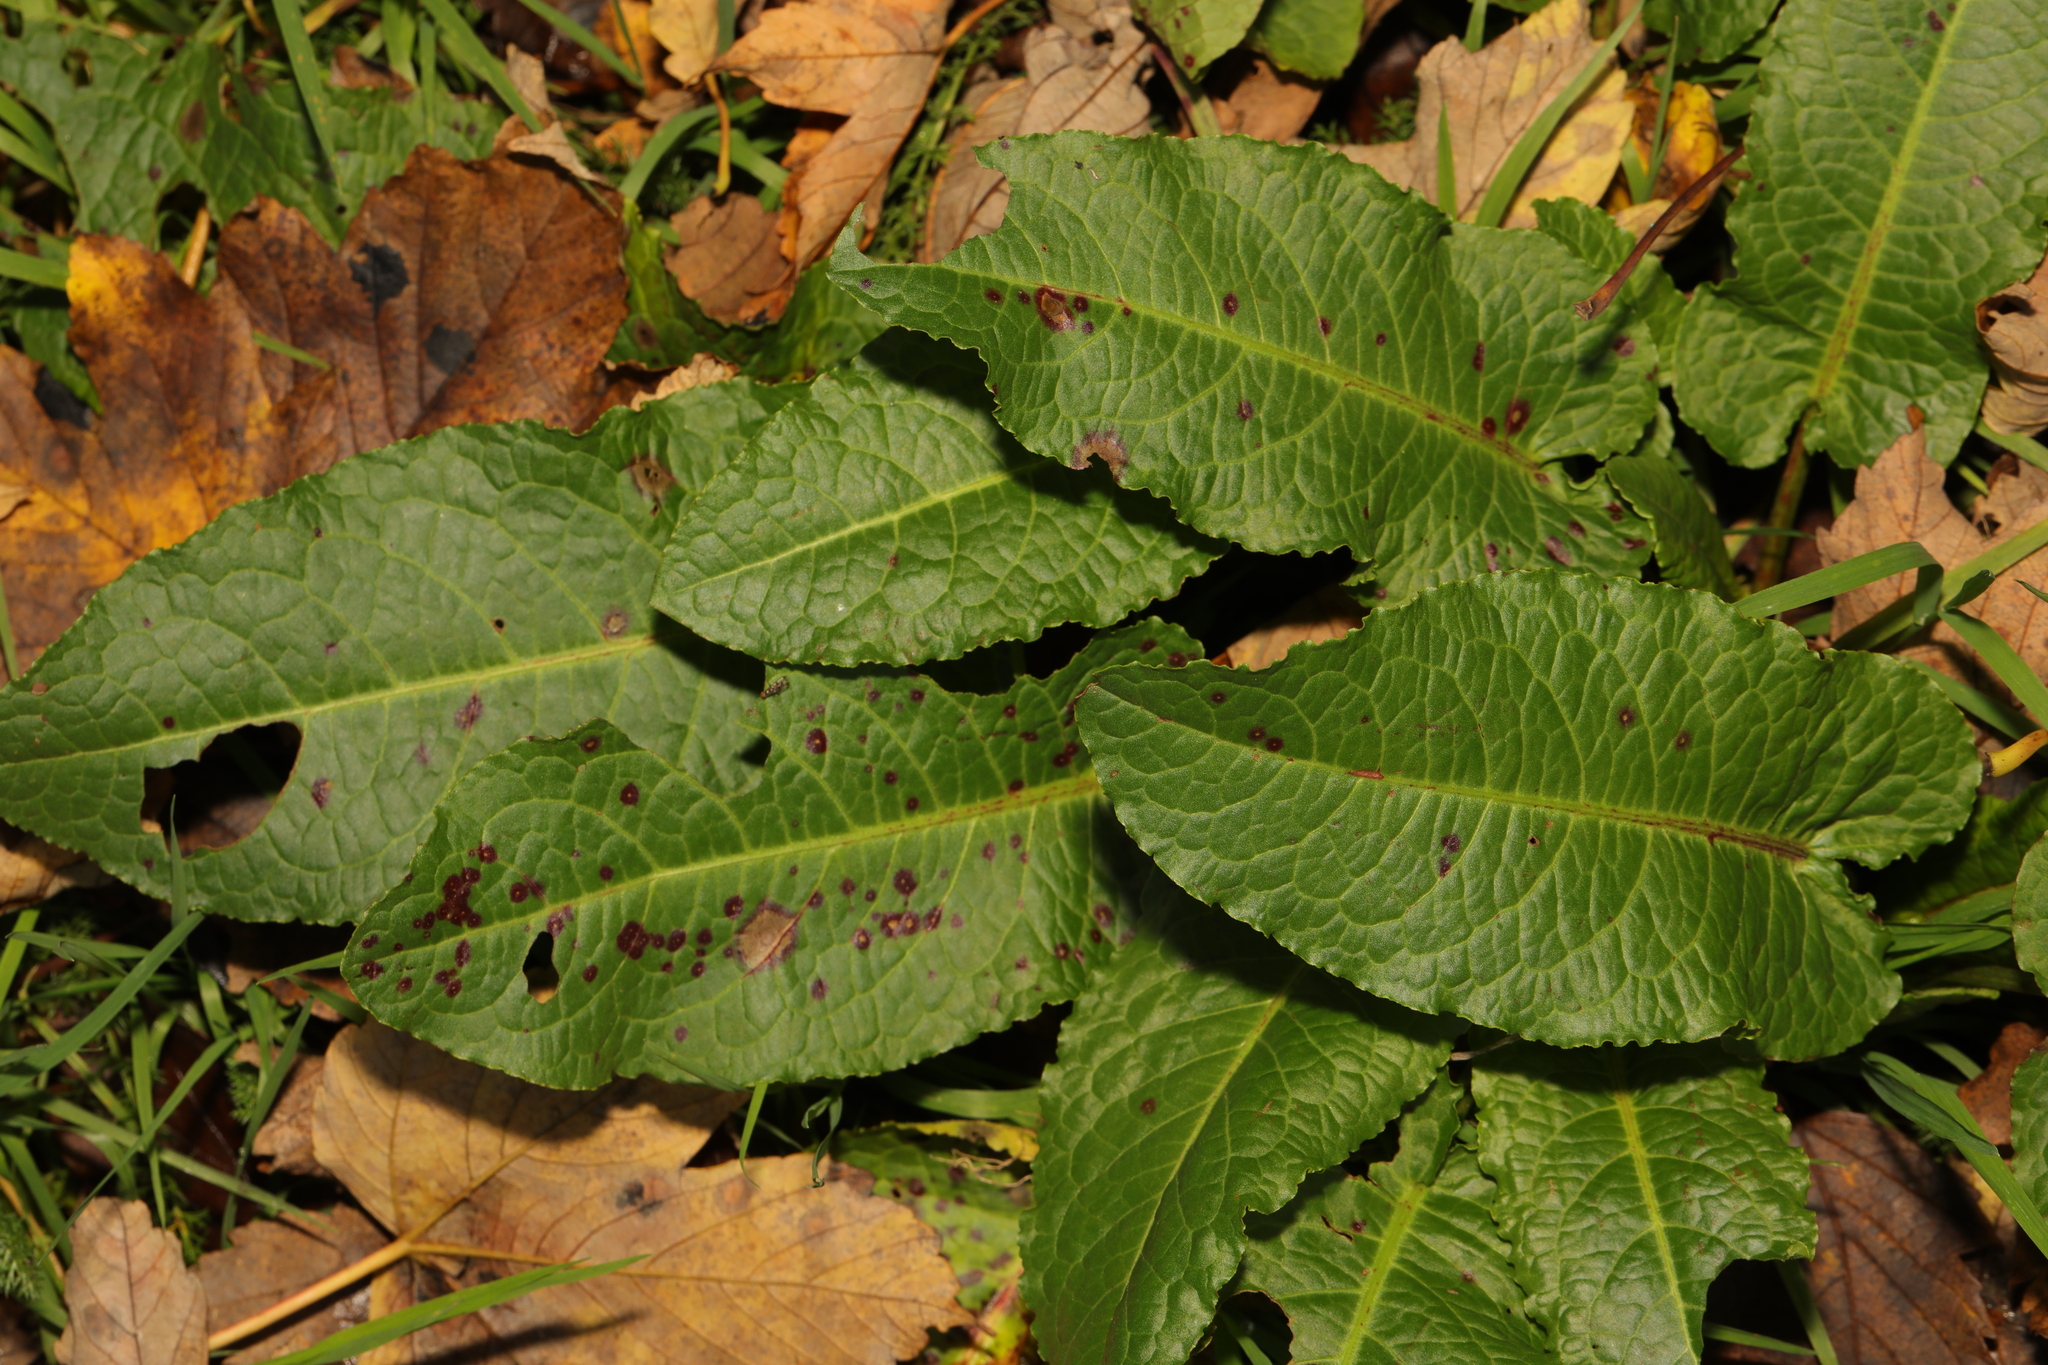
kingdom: Plantae
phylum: Tracheophyta
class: Magnoliopsida
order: Caryophyllales
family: Polygonaceae
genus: Rumex
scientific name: Rumex obtusifolius
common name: Bitter dock
